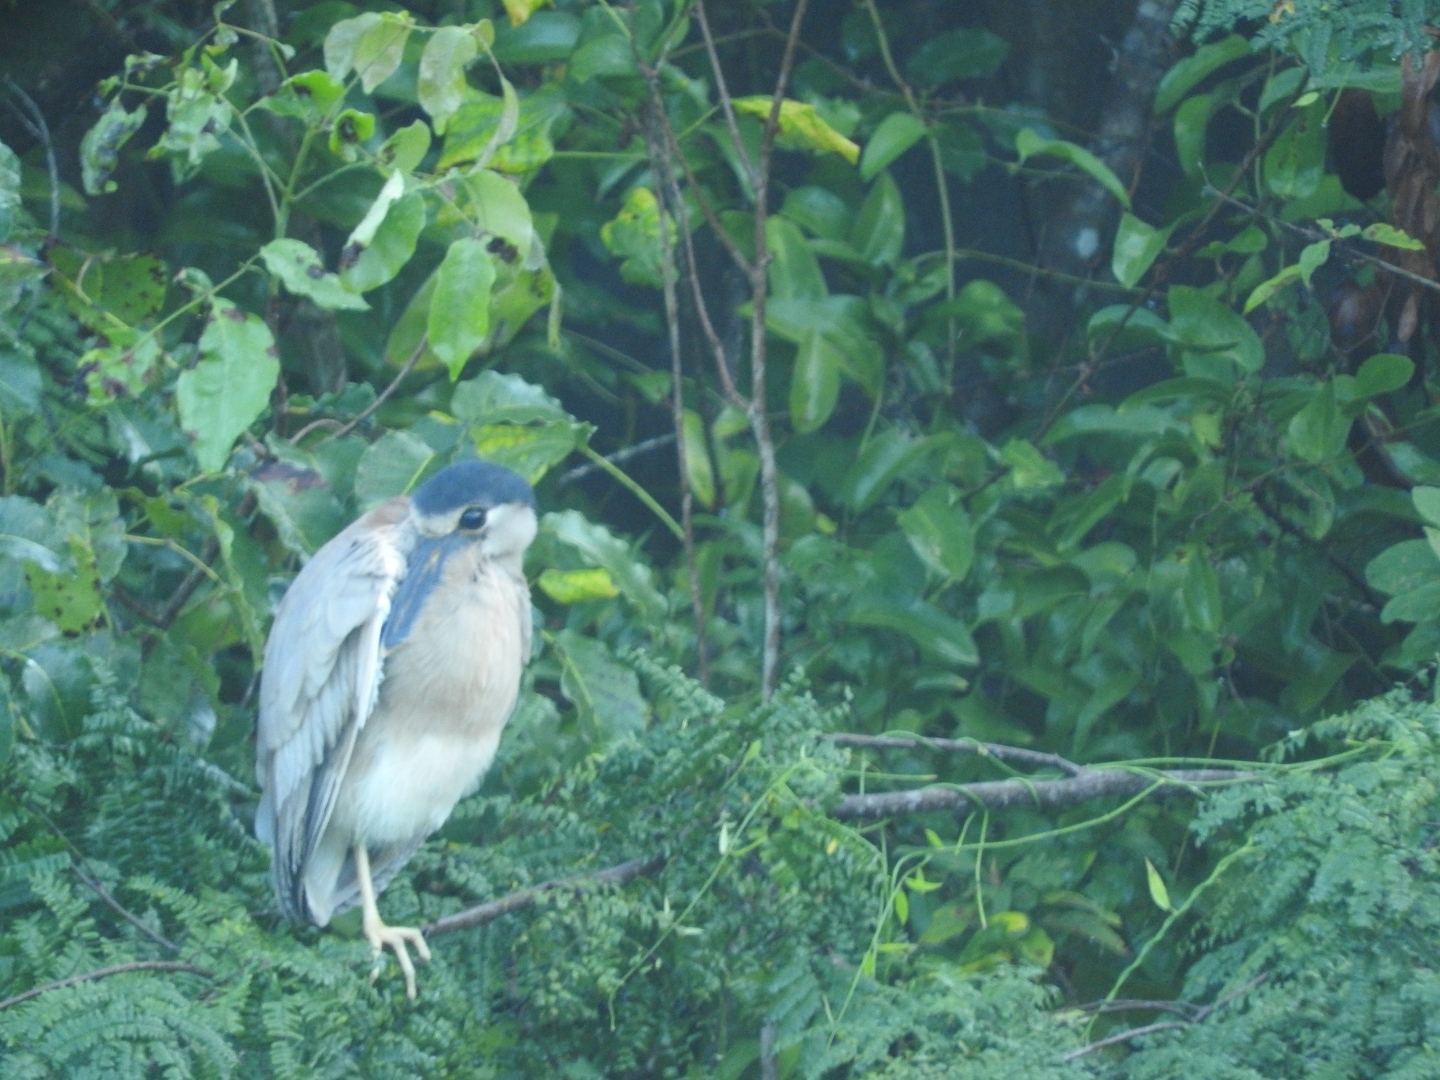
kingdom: Animalia
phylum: Chordata
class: Aves
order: Pelecaniformes
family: Ardeidae
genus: Cochlearius
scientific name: Cochlearius cochlearius
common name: Boat-billed heron
